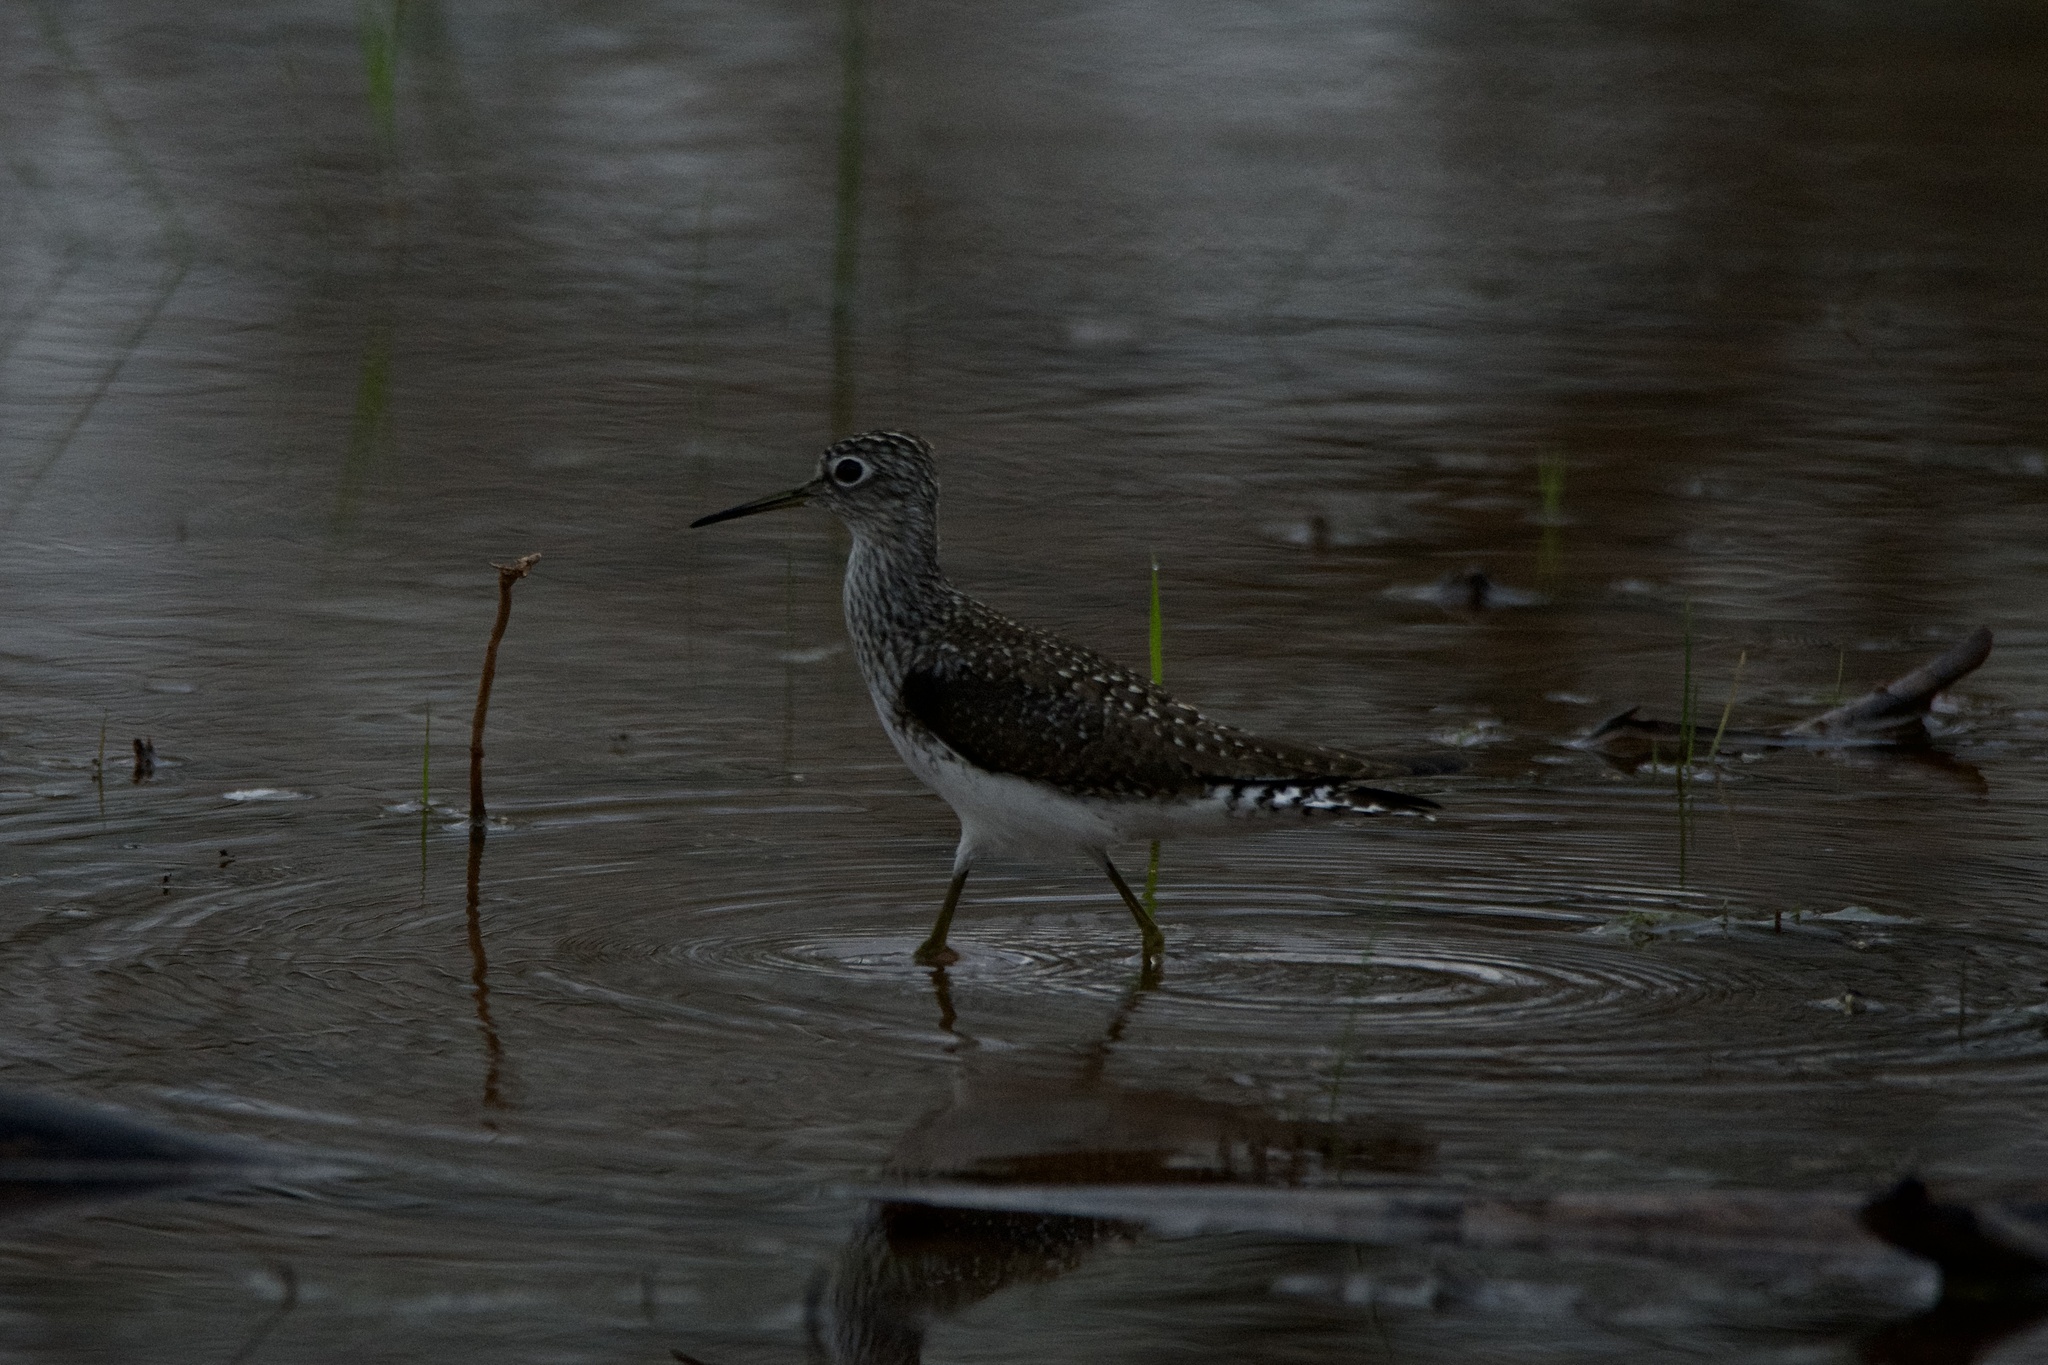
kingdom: Animalia
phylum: Chordata
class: Aves
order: Charadriiformes
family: Scolopacidae
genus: Tringa
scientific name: Tringa solitaria
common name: Solitary sandpiper
